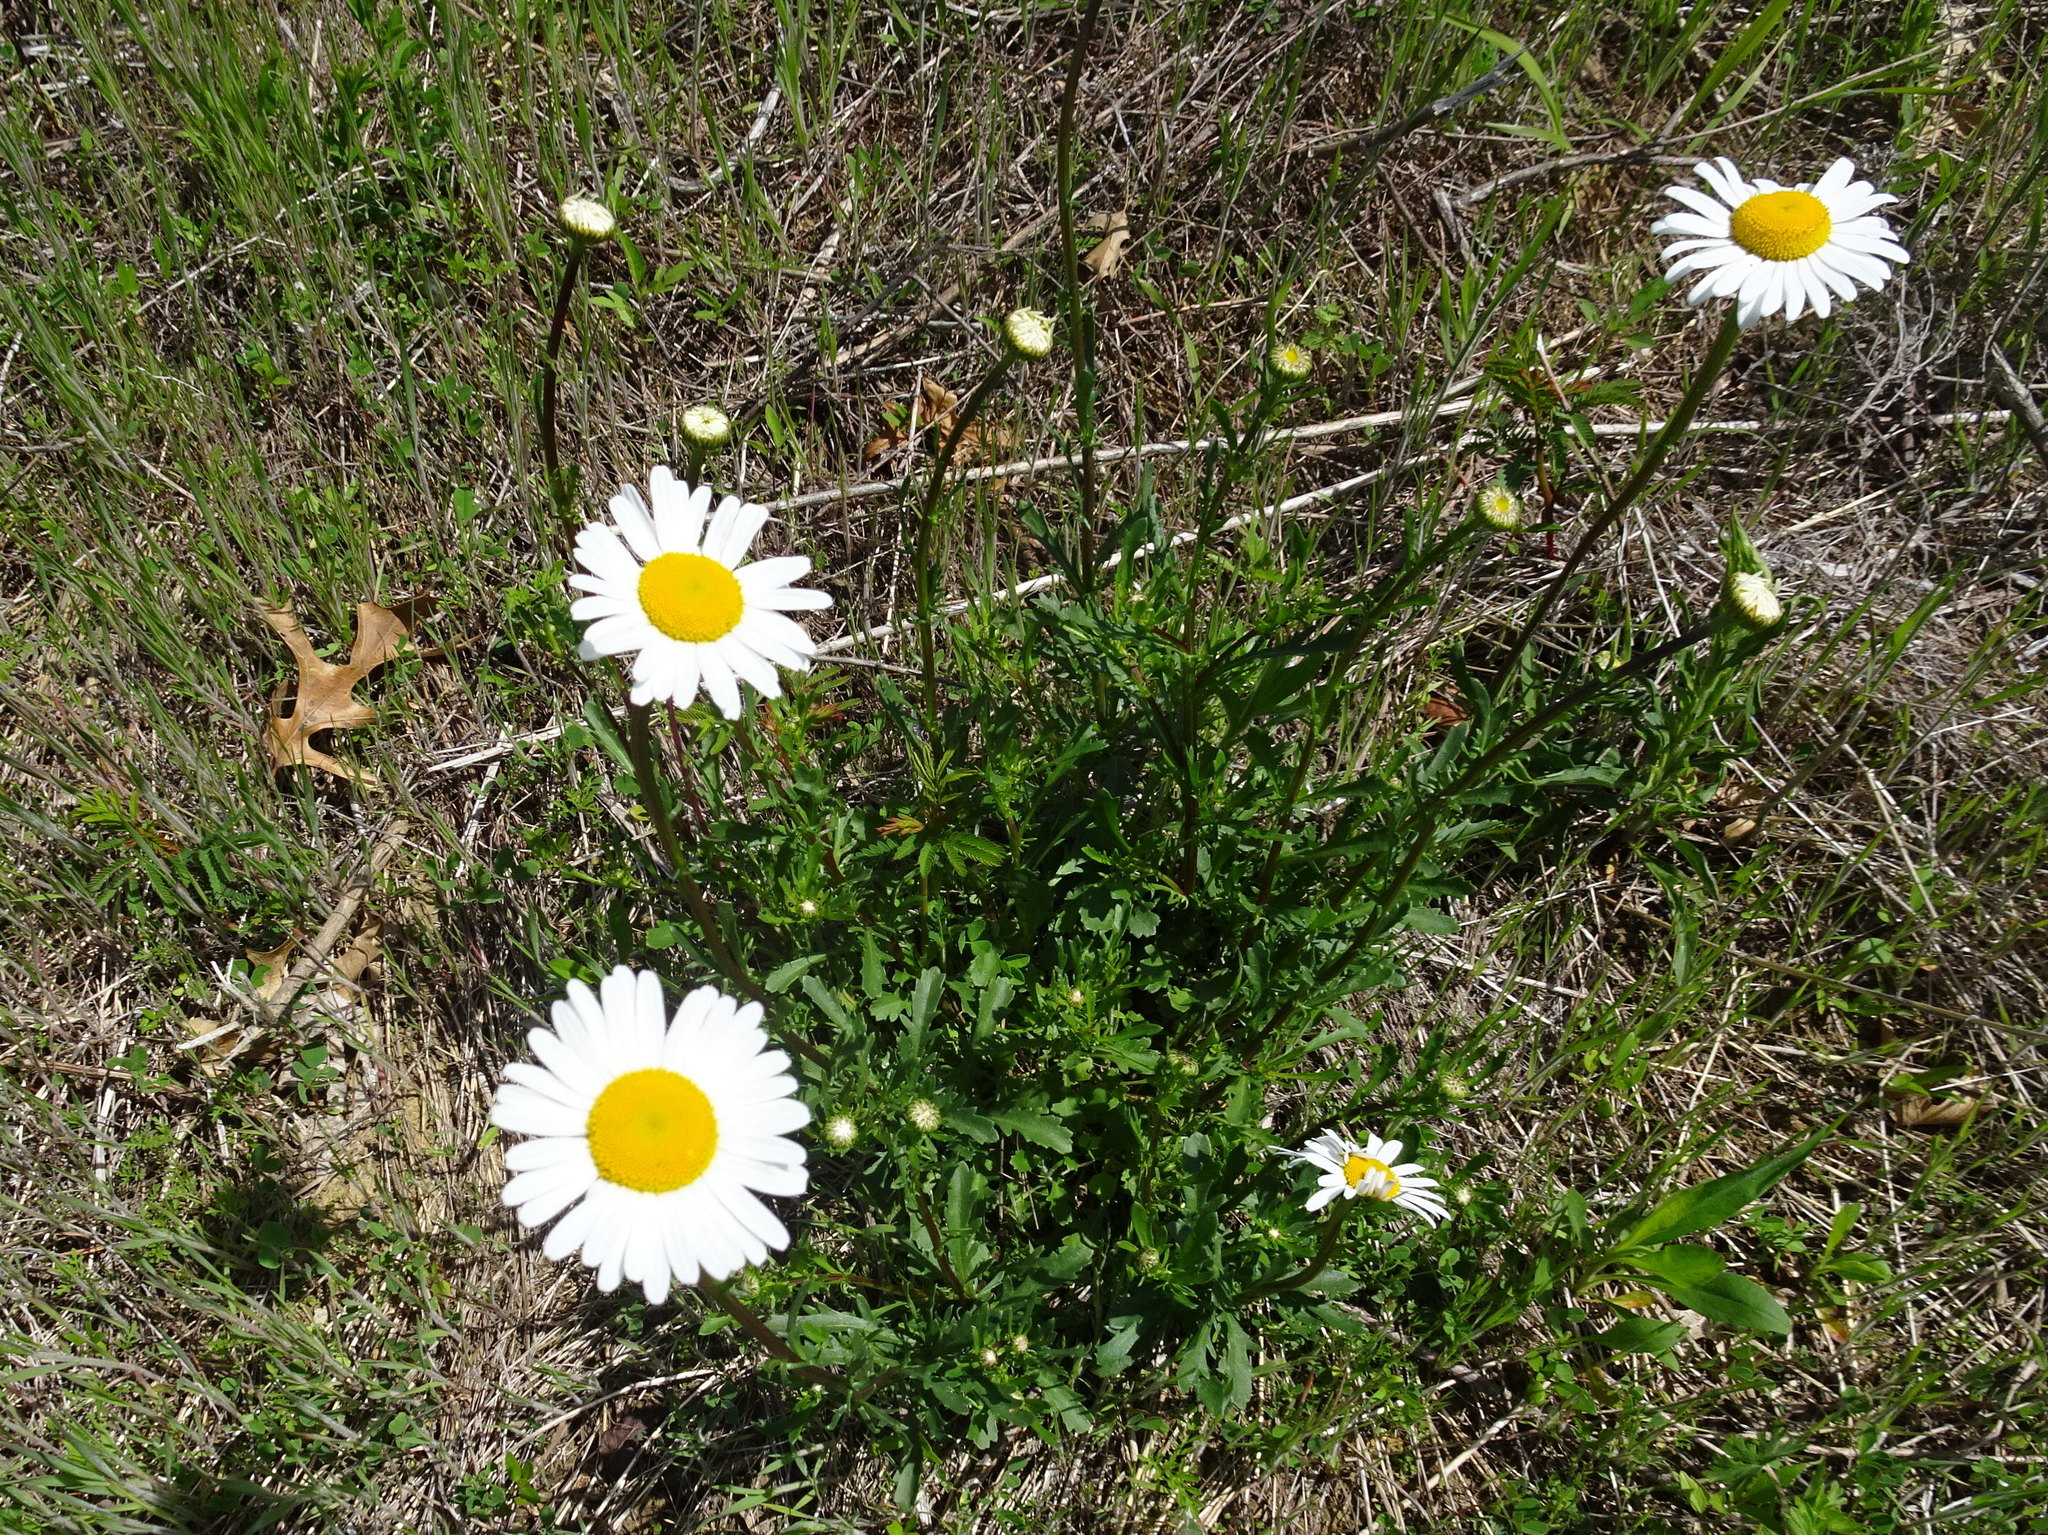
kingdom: Plantae
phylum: Tracheophyta
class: Magnoliopsida
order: Asterales
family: Asteraceae
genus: Leucanthemum
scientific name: Leucanthemum vulgare
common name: Oxeye daisy
